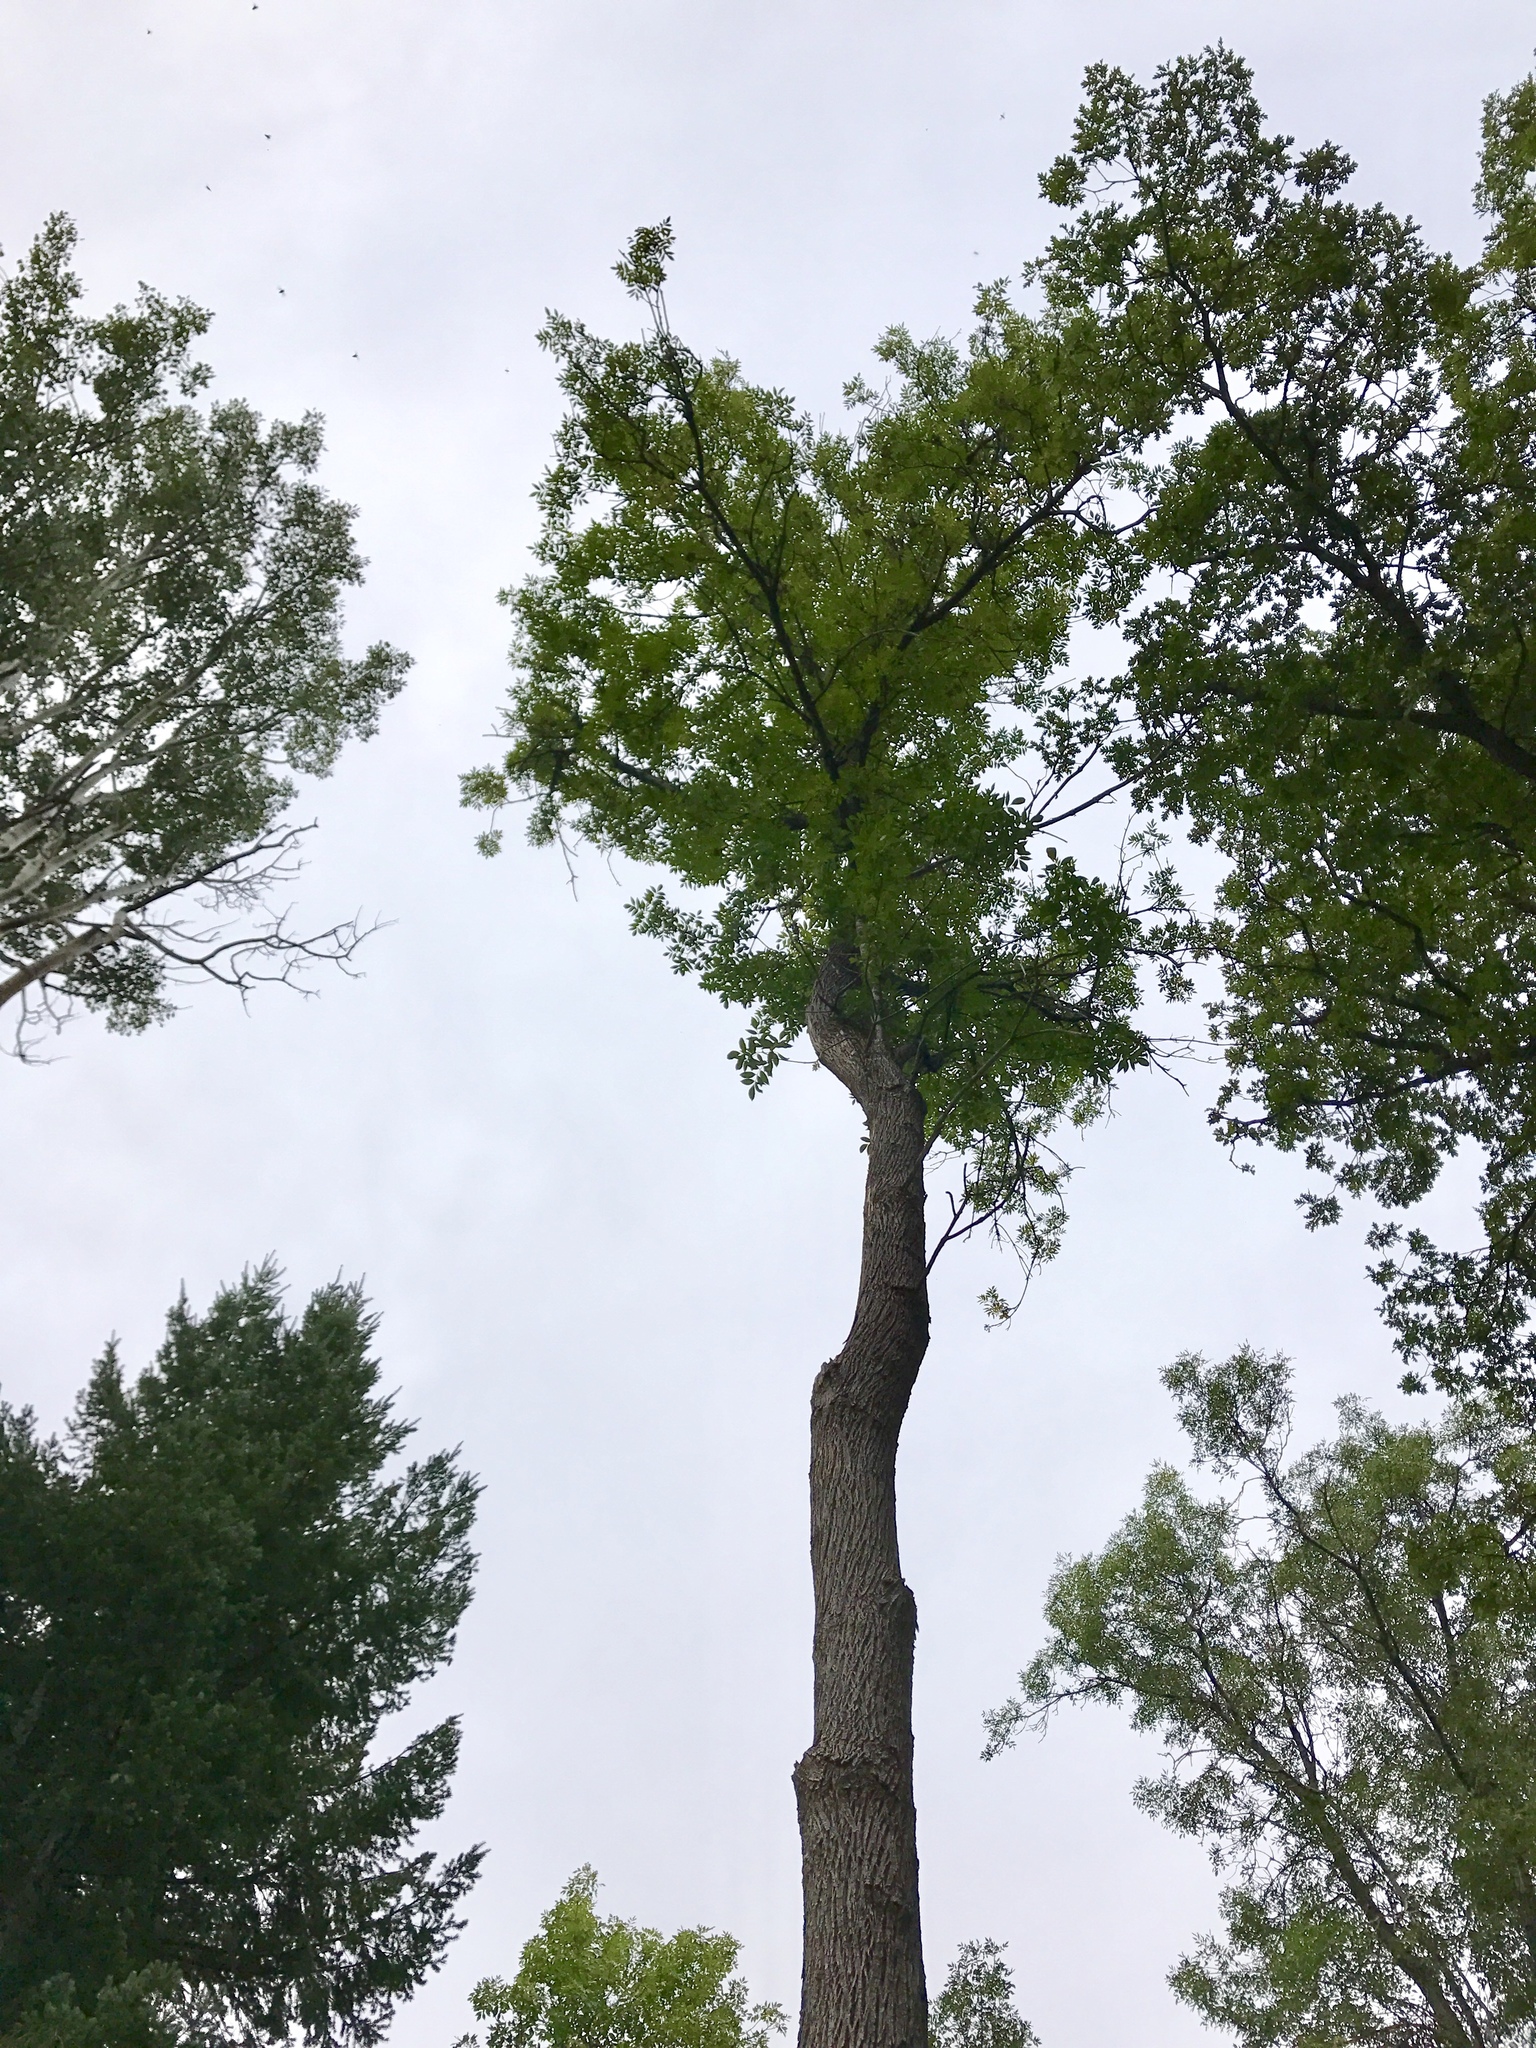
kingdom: Plantae
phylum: Tracheophyta
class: Magnoliopsida
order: Lamiales
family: Oleaceae
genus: Fraxinus
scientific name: Fraxinus velutina
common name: Arizon ash
